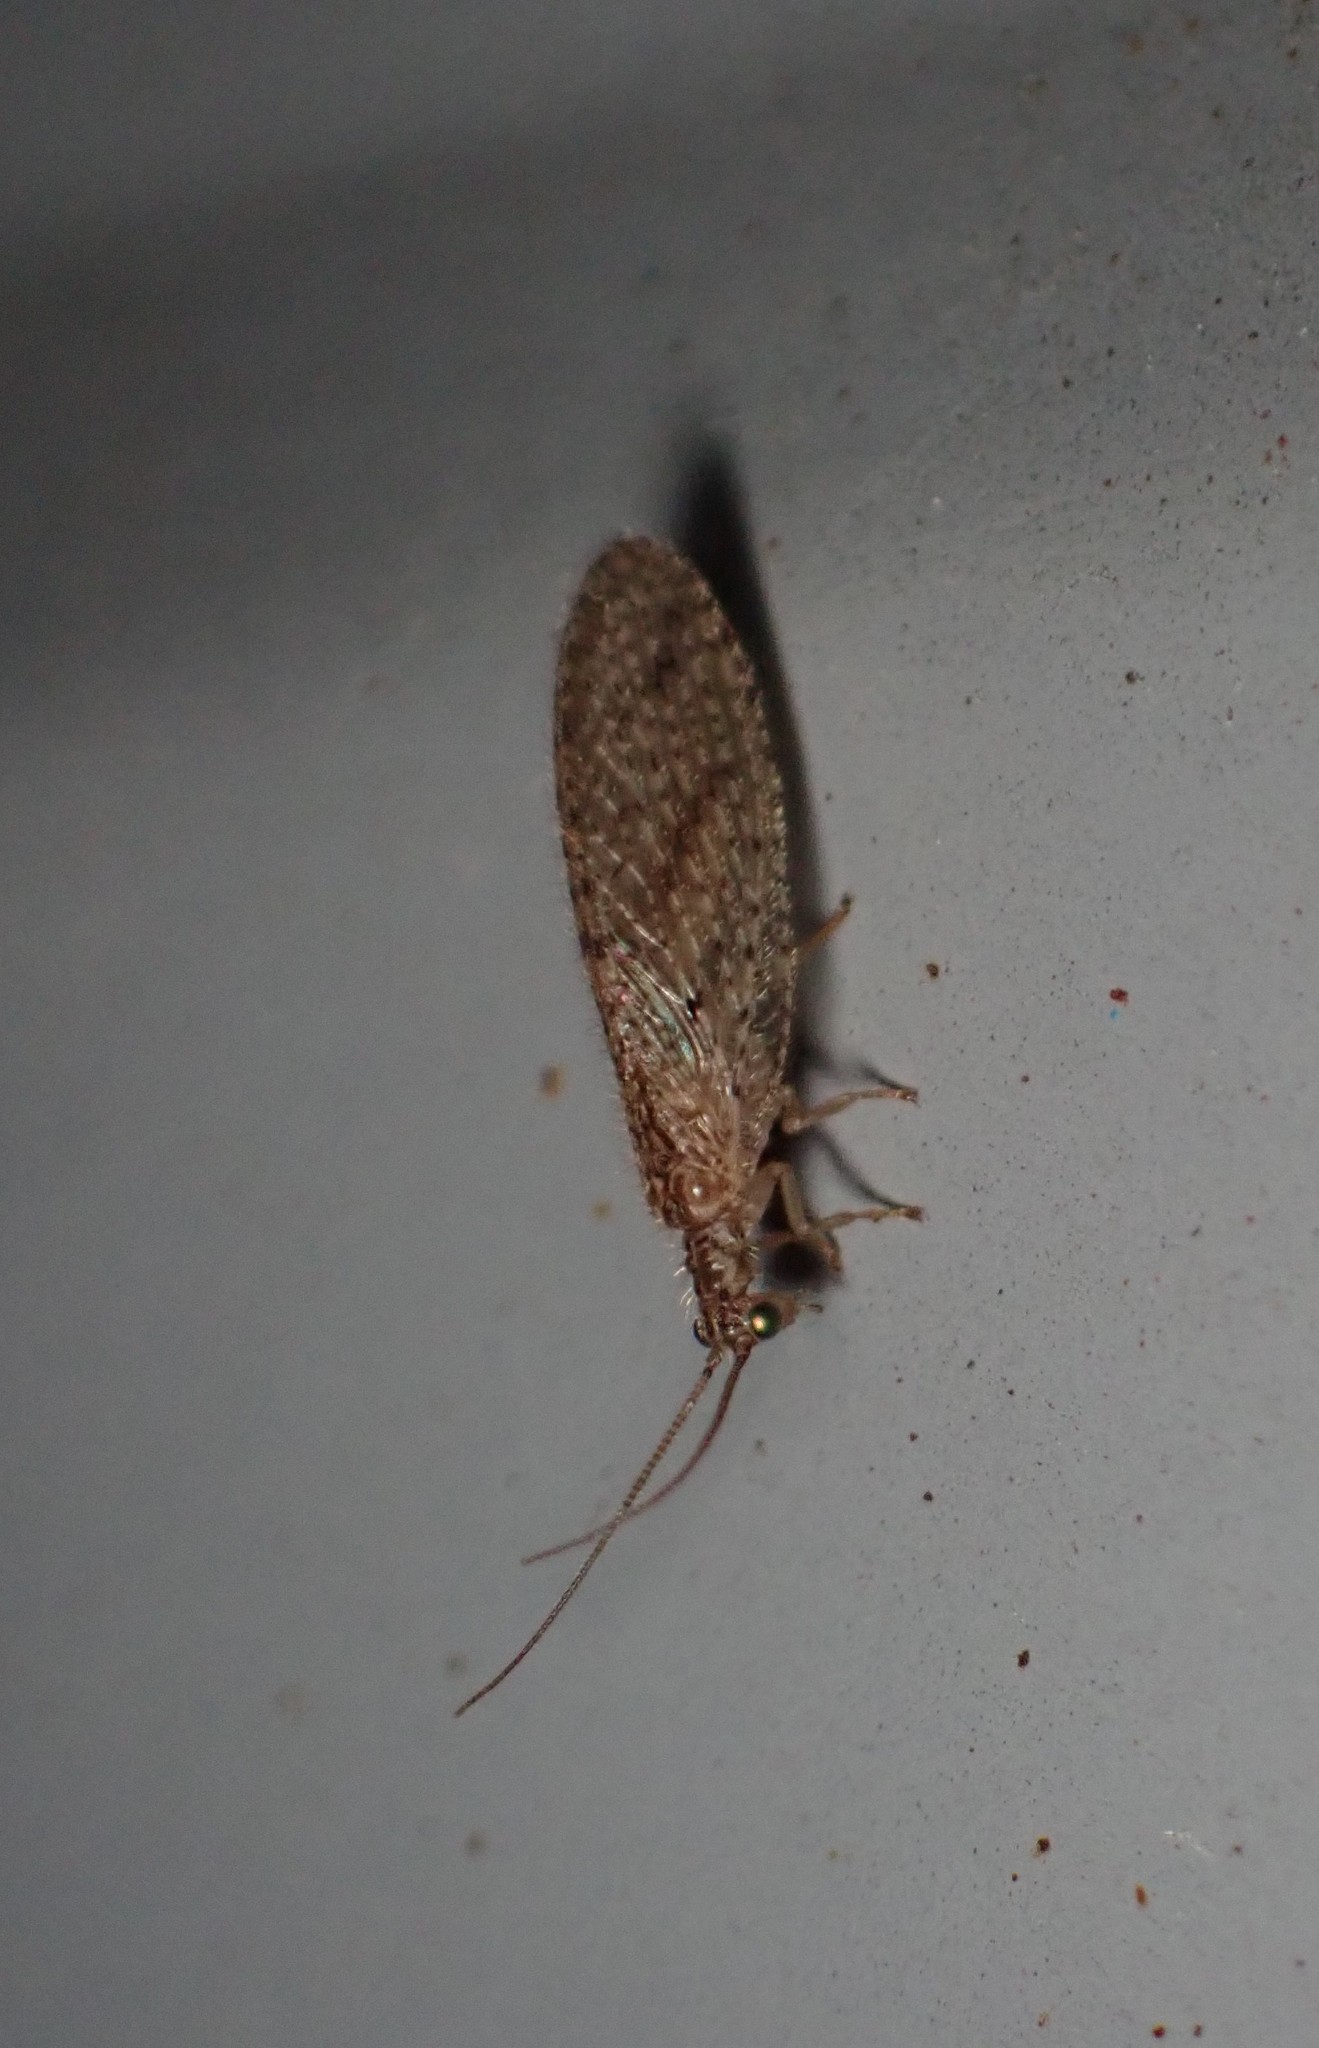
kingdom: Animalia
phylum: Arthropoda
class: Insecta
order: Neuroptera
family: Hemerobiidae
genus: Micromus
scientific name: Micromus tasmaniae
